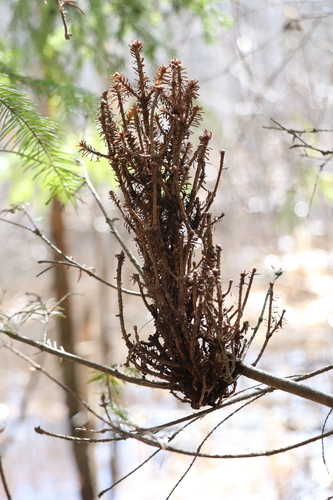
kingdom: Fungi
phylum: Basidiomycota
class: Pucciniomycetes
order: Pucciniales
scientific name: Pucciniales
